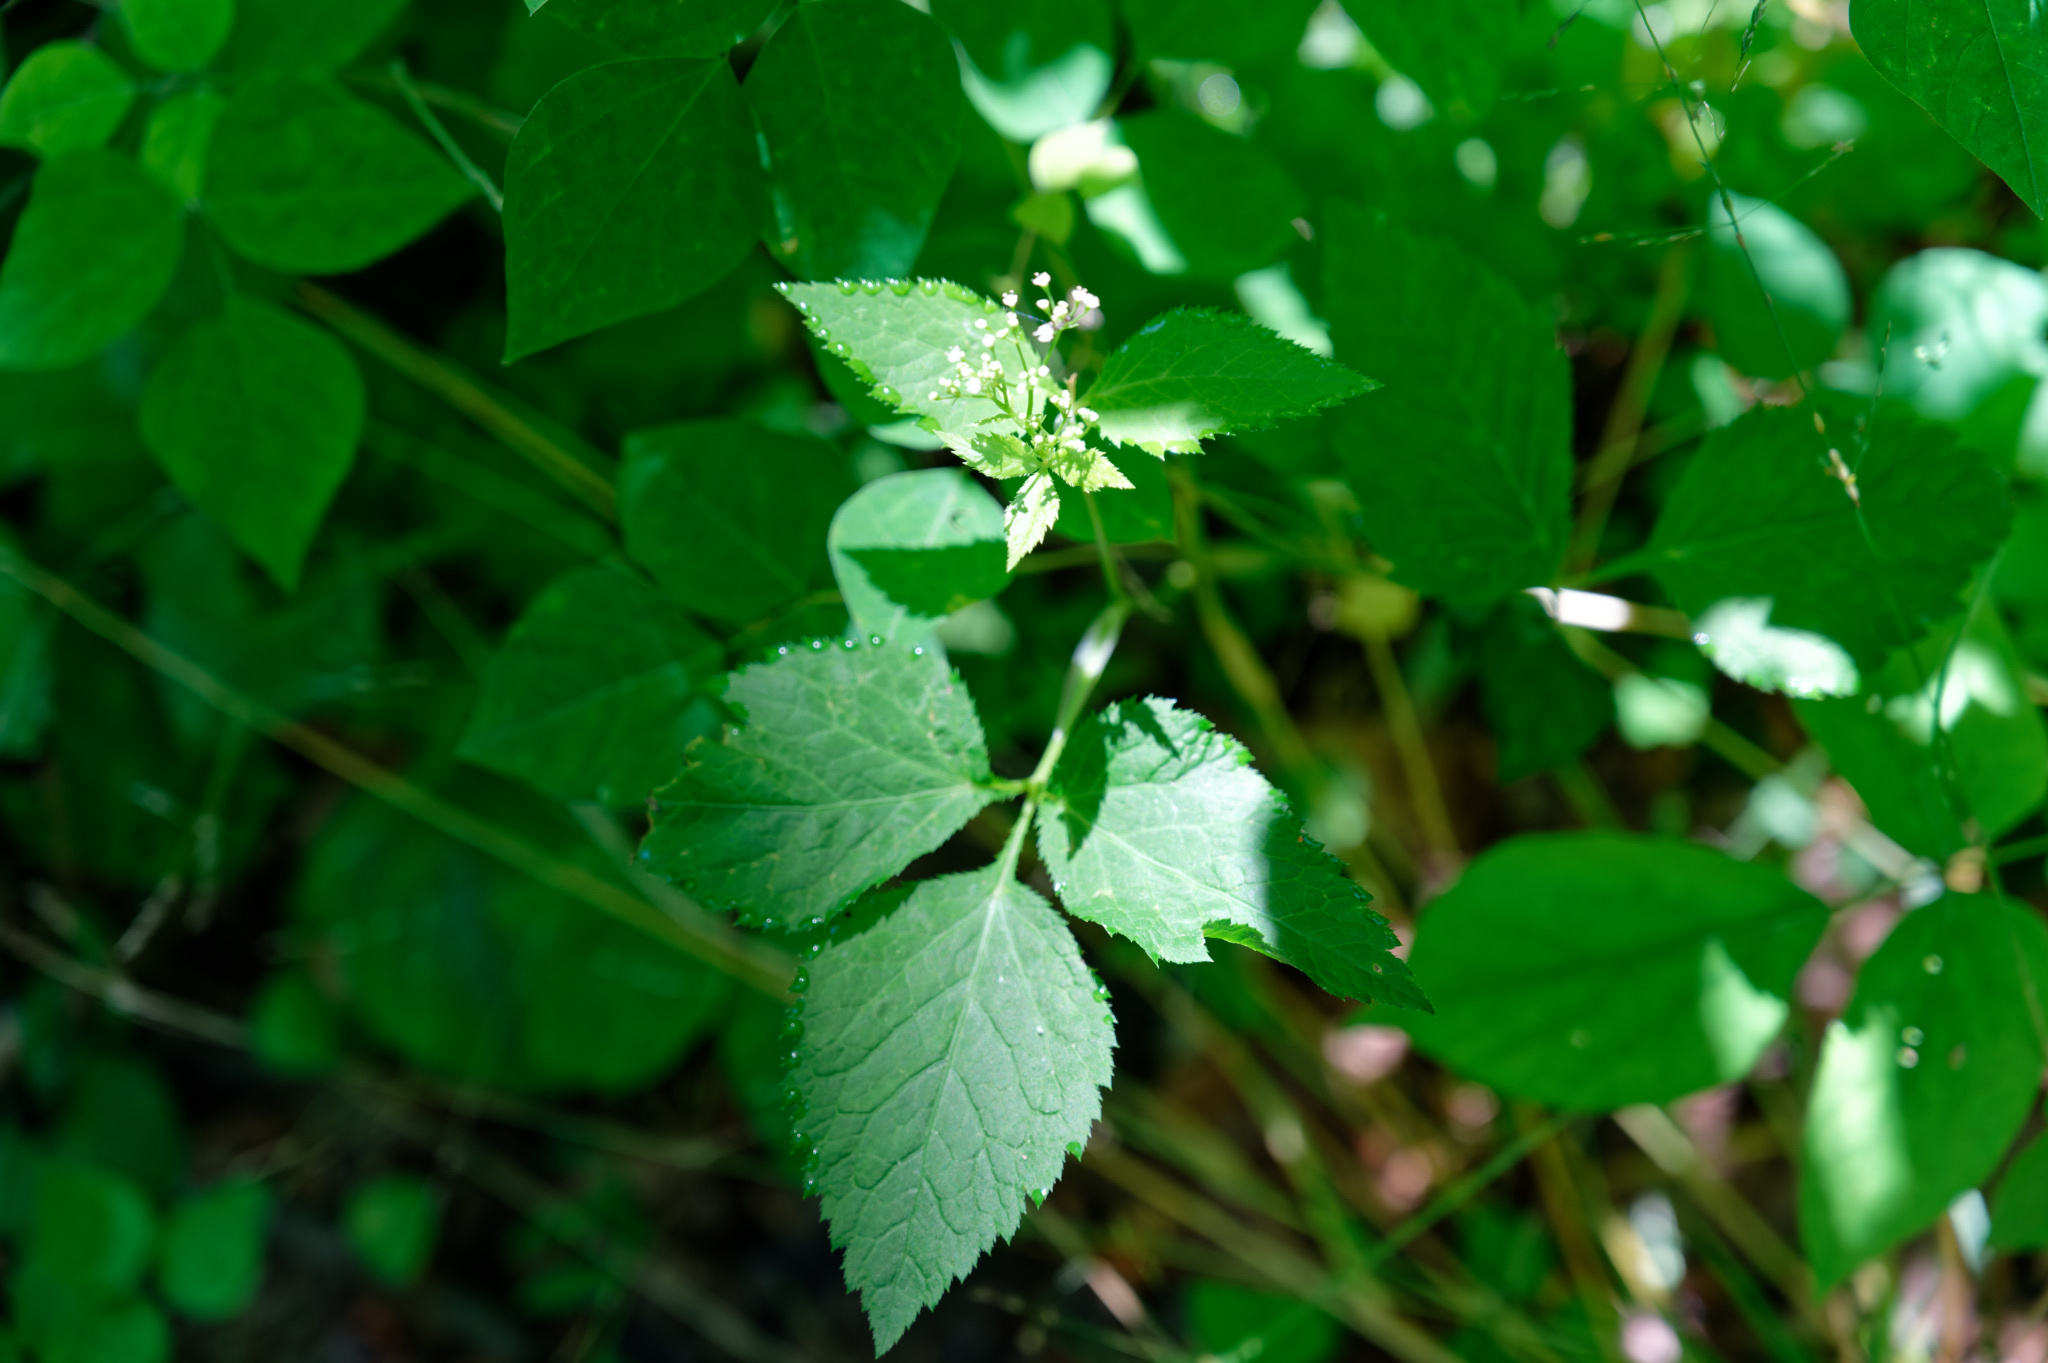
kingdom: Plantae
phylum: Tracheophyta
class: Magnoliopsida
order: Apiales
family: Apiaceae
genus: Cryptotaenia
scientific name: Cryptotaenia canadensis
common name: Honewort
